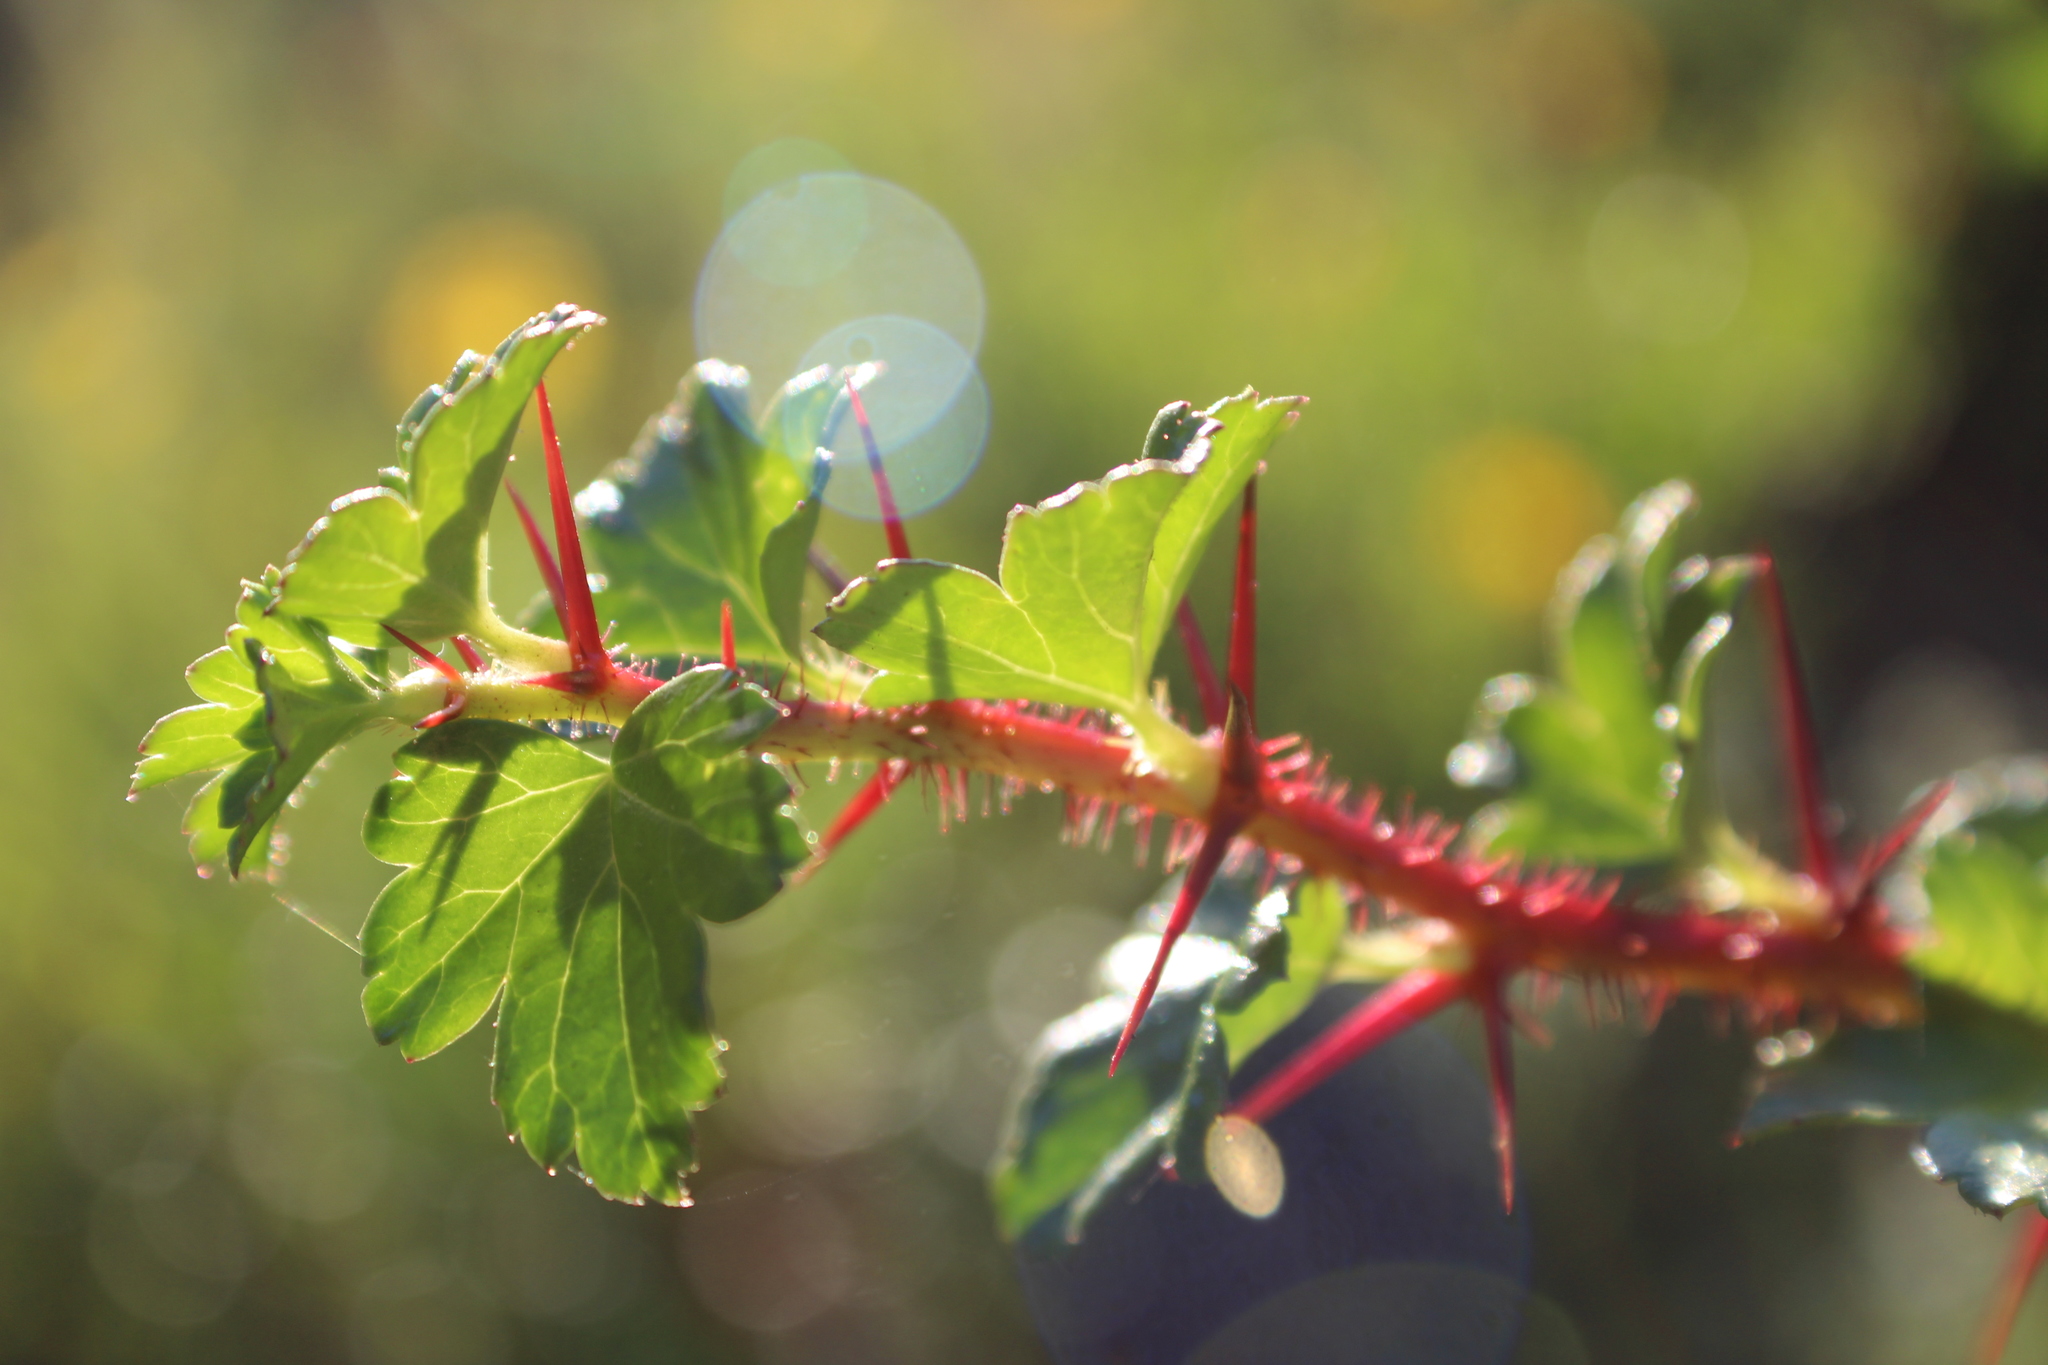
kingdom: Plantae
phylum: Tracheophyta
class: Magnoliopsida
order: Saxifragales
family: Grossulariaceae
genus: Ribes
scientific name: Ribes speciosum
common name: Fuchsia-flower gooseberry
